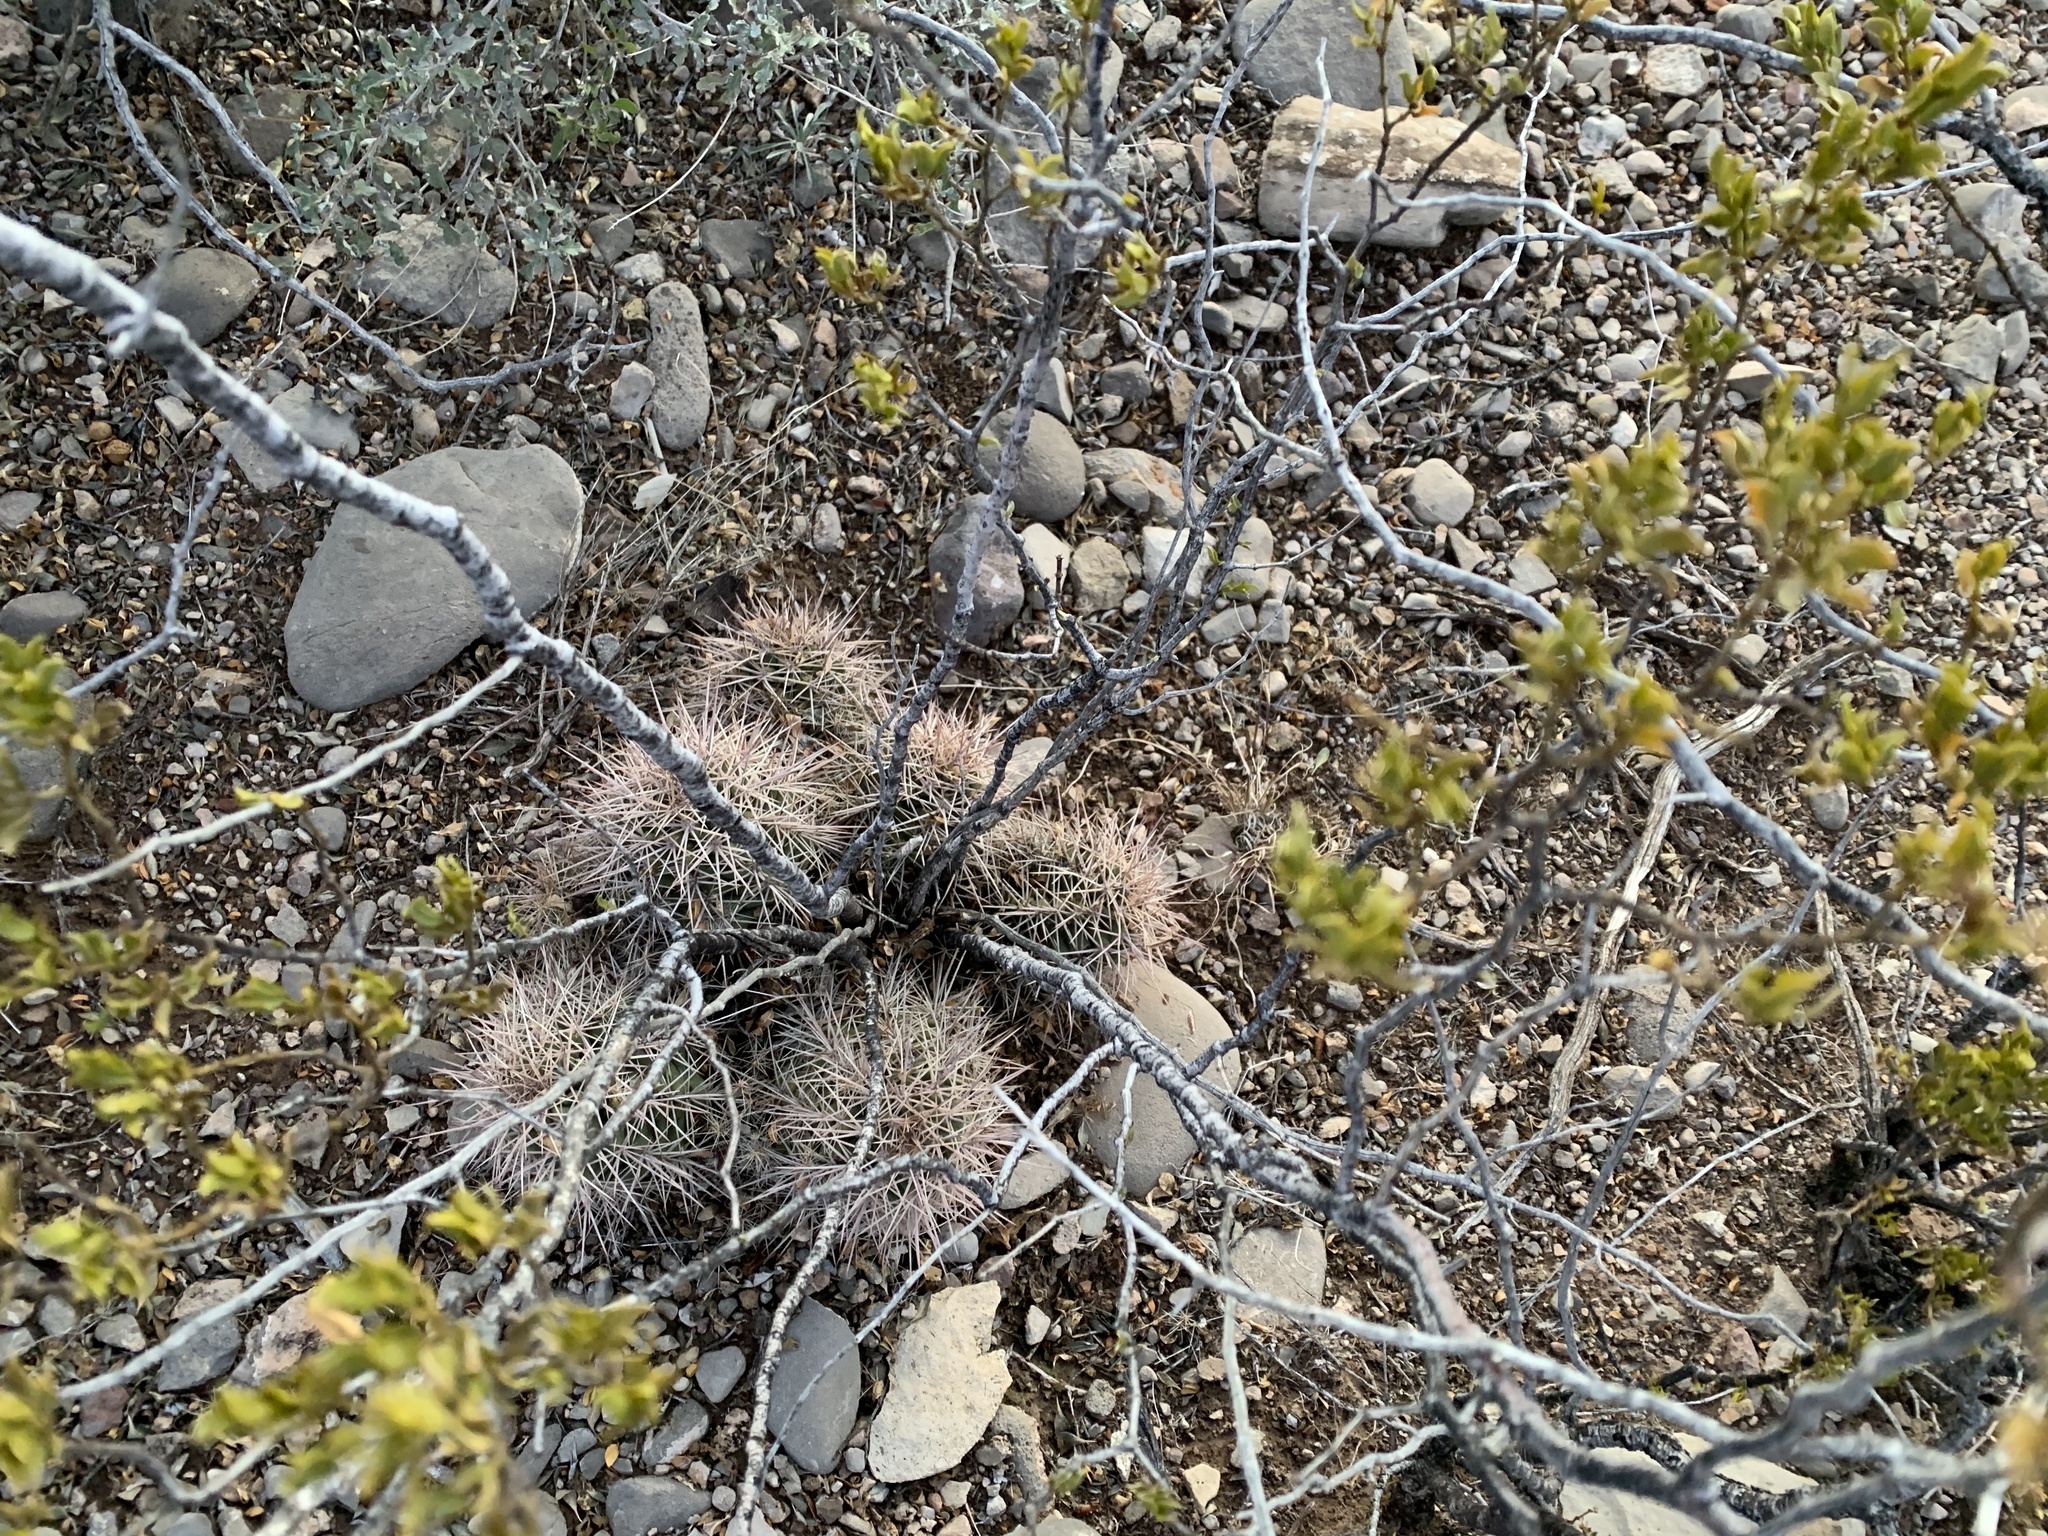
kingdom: Plantae
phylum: Tracheophyta
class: Magnoliopsida
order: Caryophyllales
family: Cactaceae
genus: Echinocereus
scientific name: Echinocereus coccineus
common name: Scarlet hedgehog cactus
